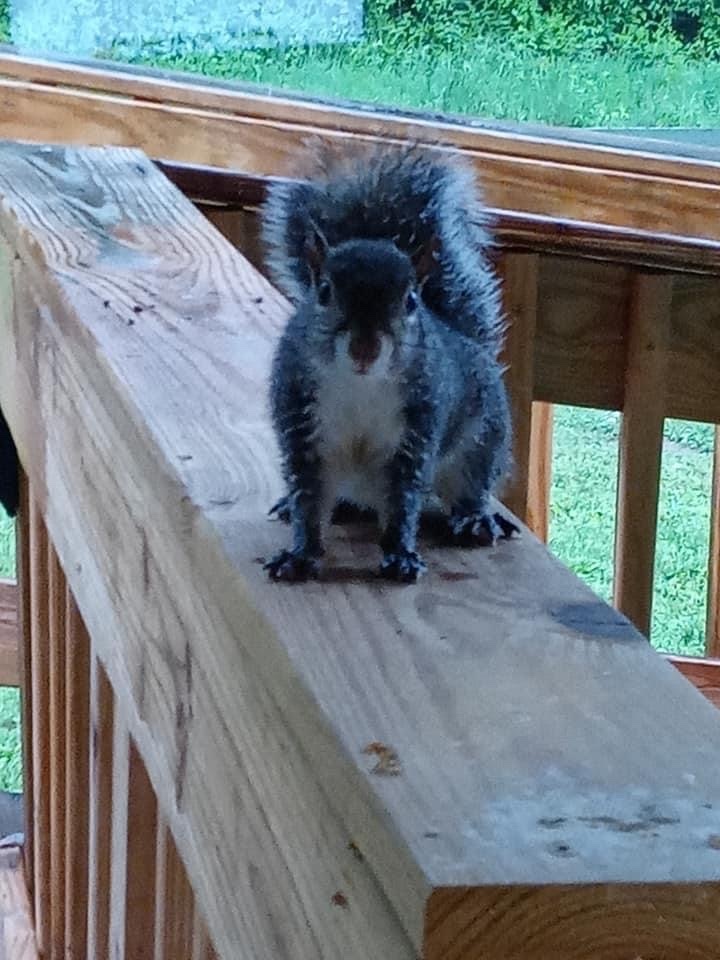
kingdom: Animalia
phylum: Chordata
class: Mammalia
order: Rodentia
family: Sciuridae
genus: Sciurus
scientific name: Sciurus carolinensis
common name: Eastern gray squirrel
